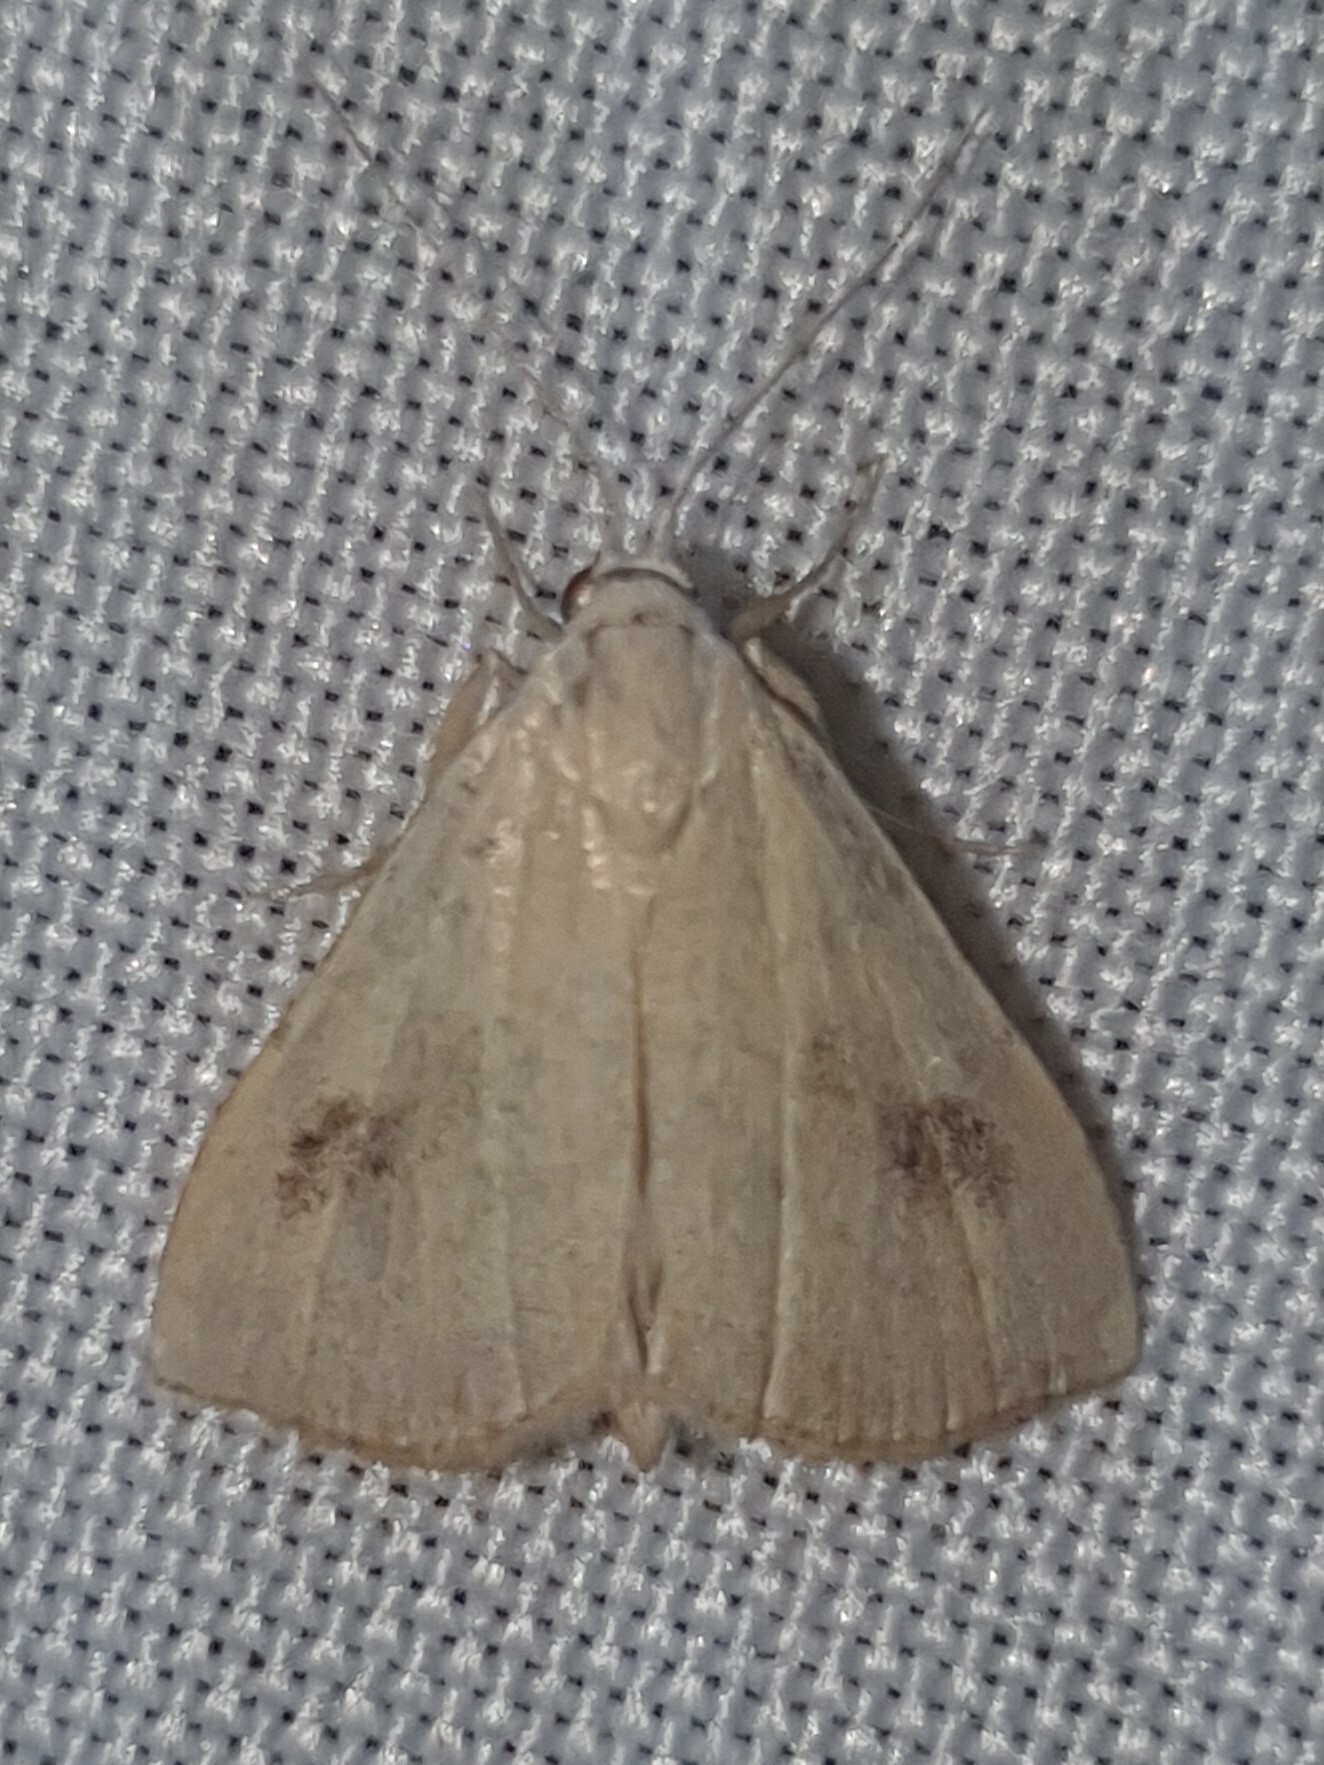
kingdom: Animalia
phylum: Arthropoda
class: Insecta
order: Lepidoptera
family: Erebidae
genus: Rivula
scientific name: Rivula sericealis
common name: Straw dot
